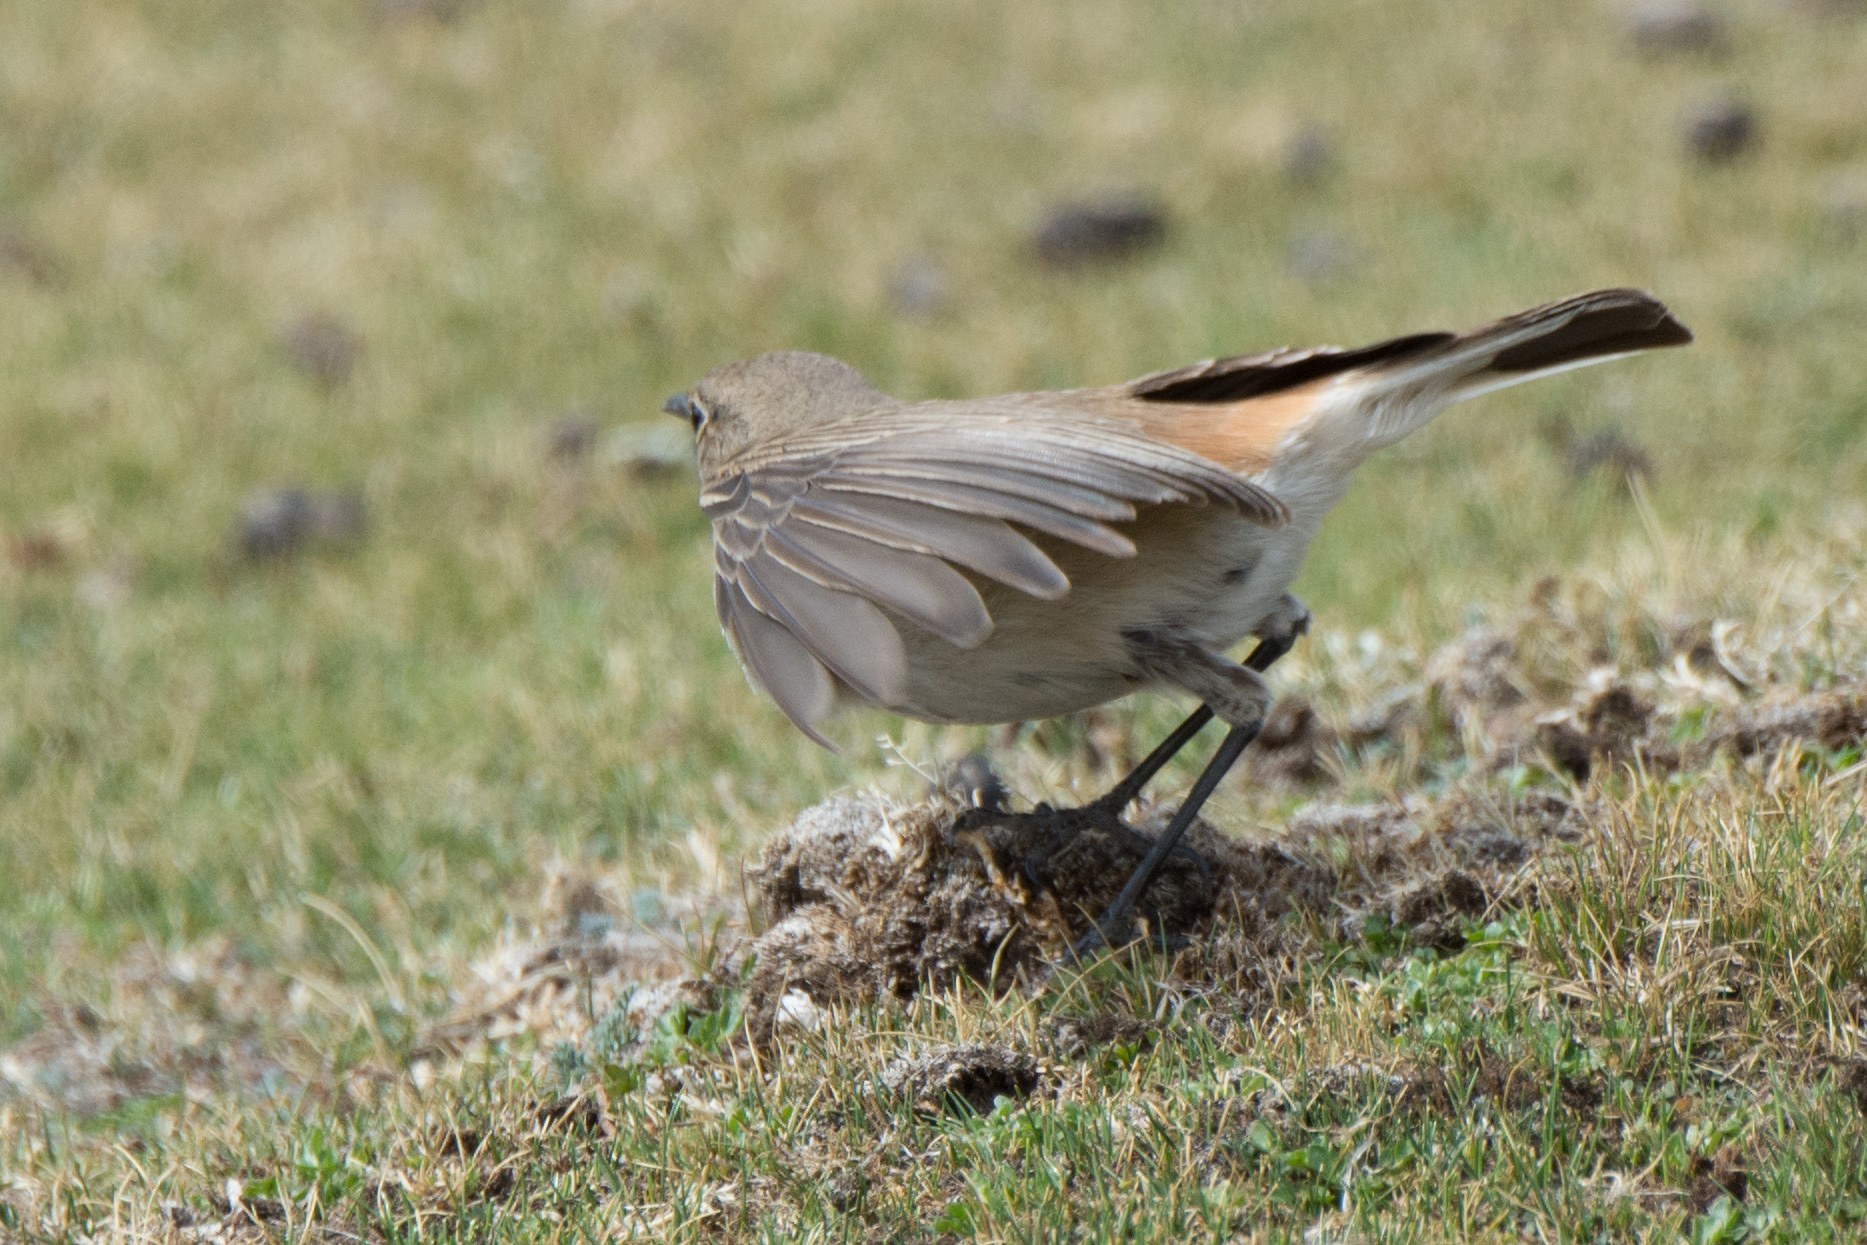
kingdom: Animalia
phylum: Chordata
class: Aves
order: Passeriformes
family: Muscicapidae
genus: Emarginata
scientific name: Emarginata sinuata
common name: Sickle-winged chat
